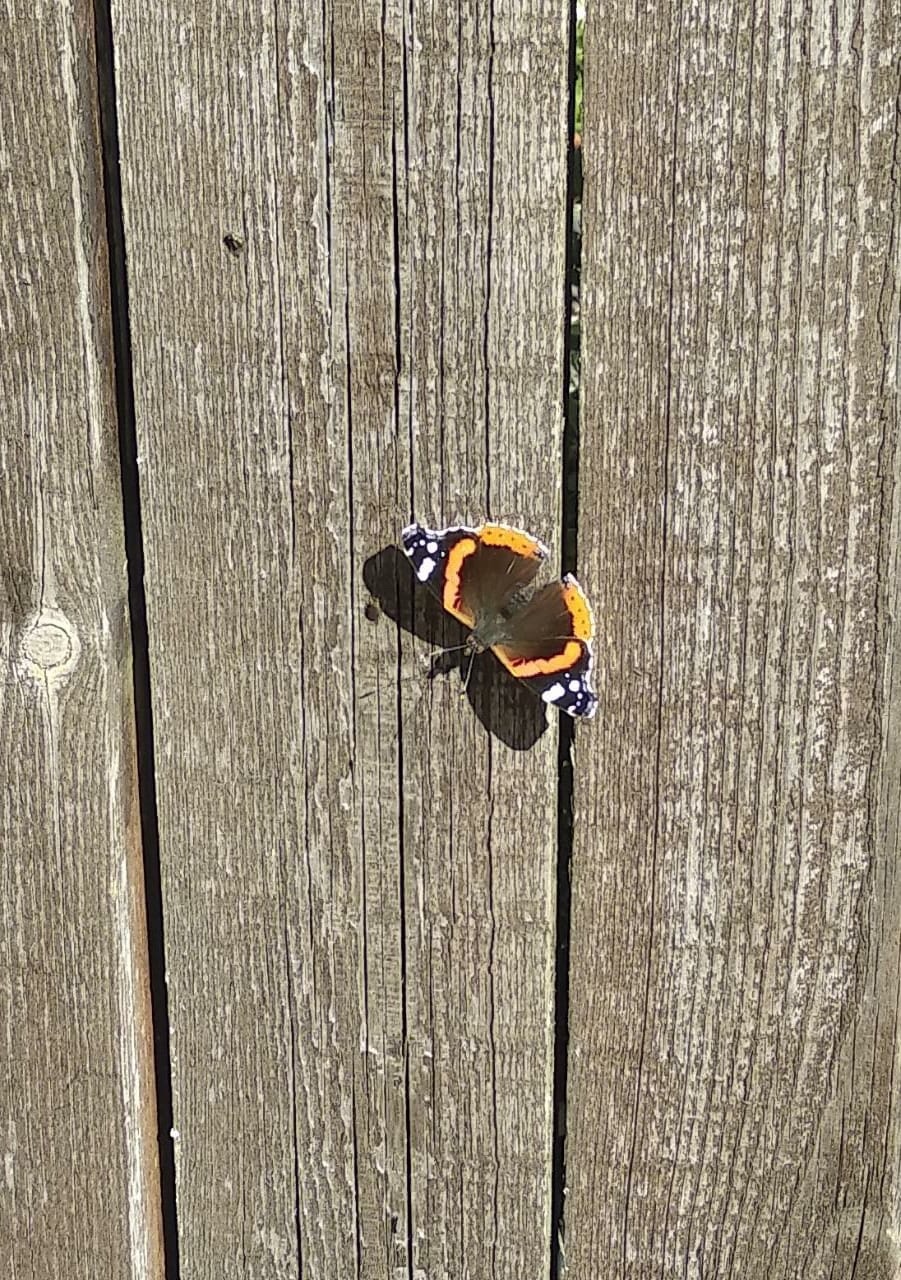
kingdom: Animalia
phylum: Arthropoda
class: Insecta
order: Lepidoptera
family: Nymphalidae
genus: Vanessa
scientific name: Vanessa atalanta
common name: Red admiral
